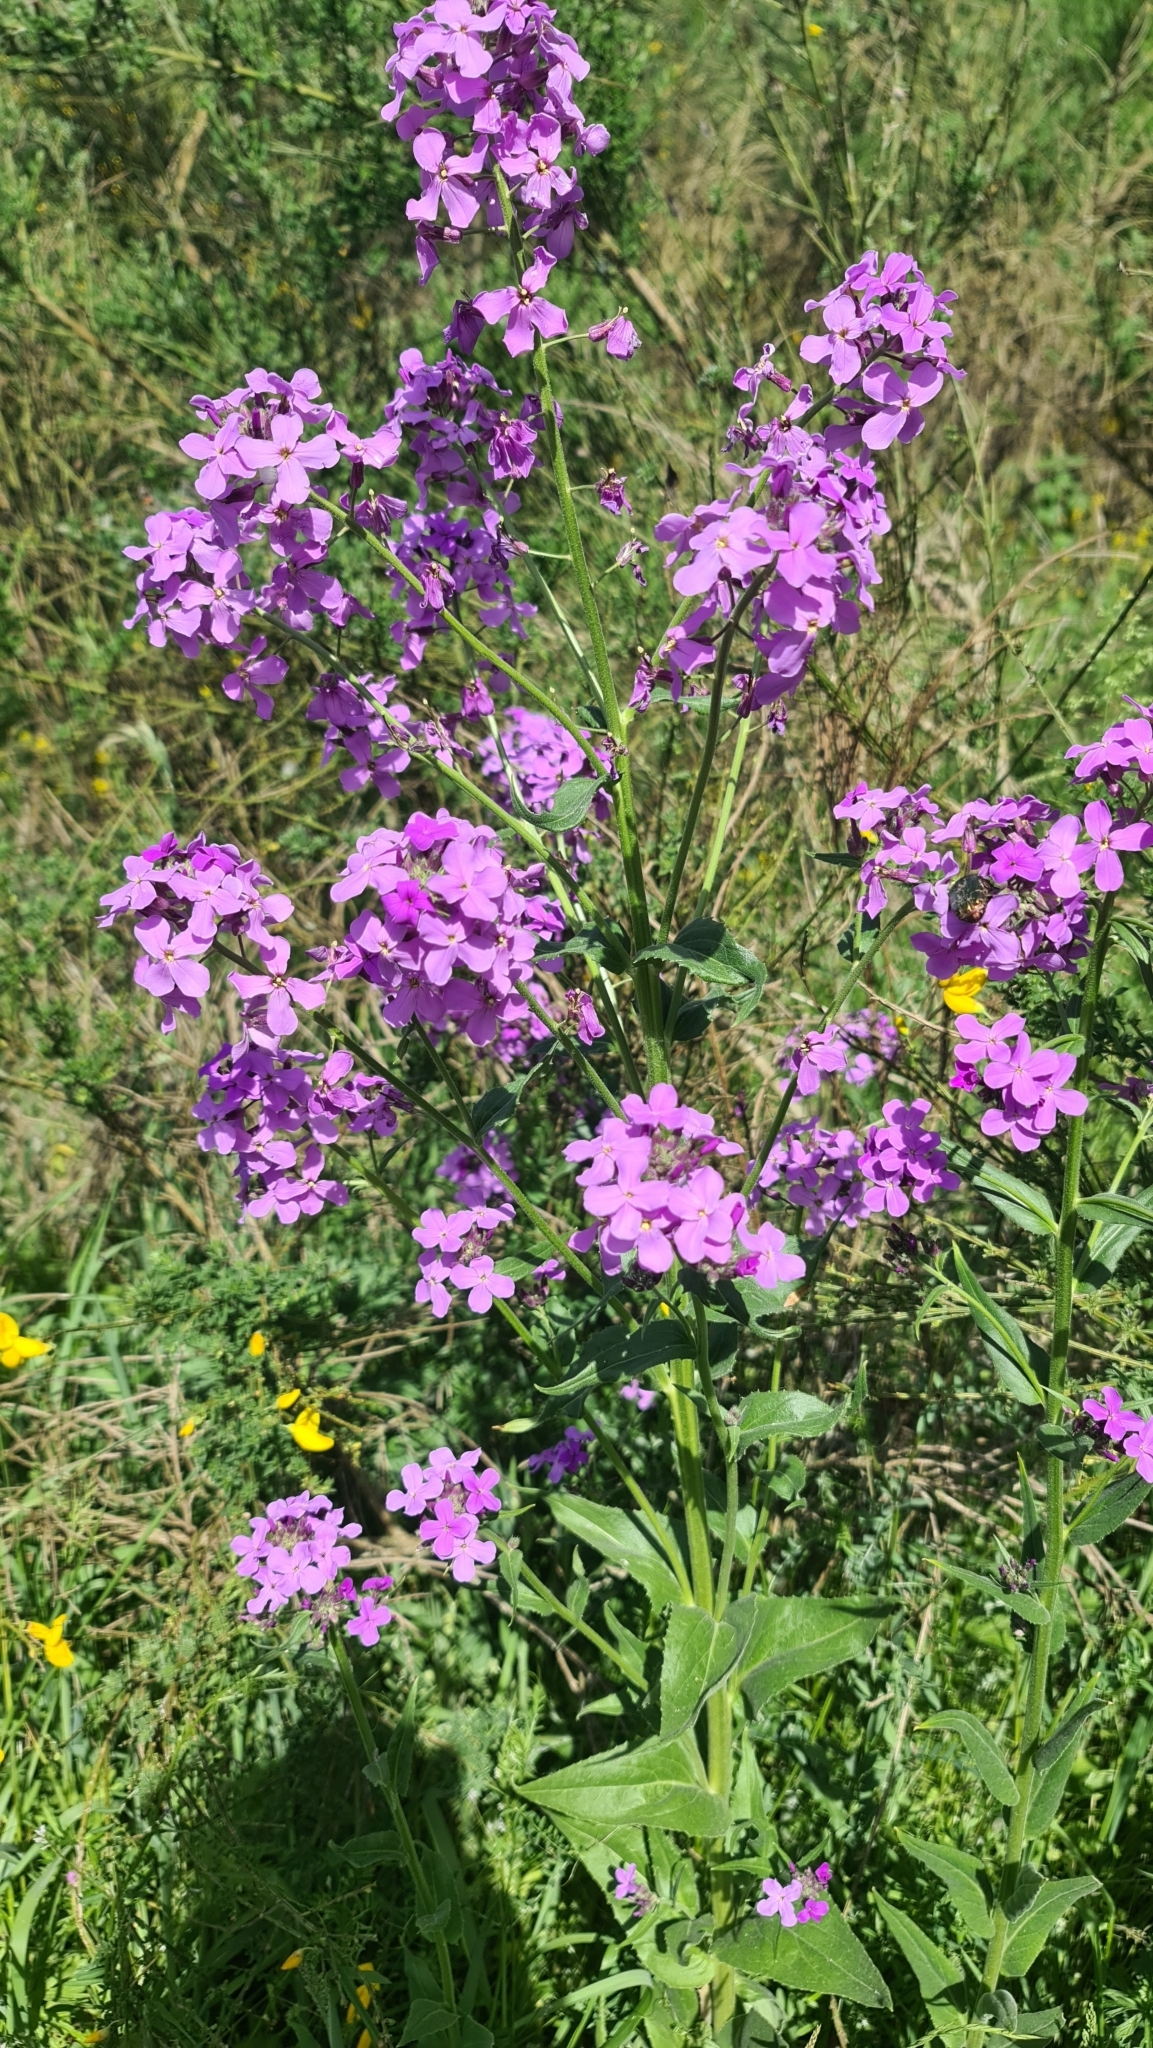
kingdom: Plantae
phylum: Tracheophyta
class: Magnoliopsida
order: Brassicales
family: Brassicaceae
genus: Hesperis
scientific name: Hesperis matronalis
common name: Dame's-violet
